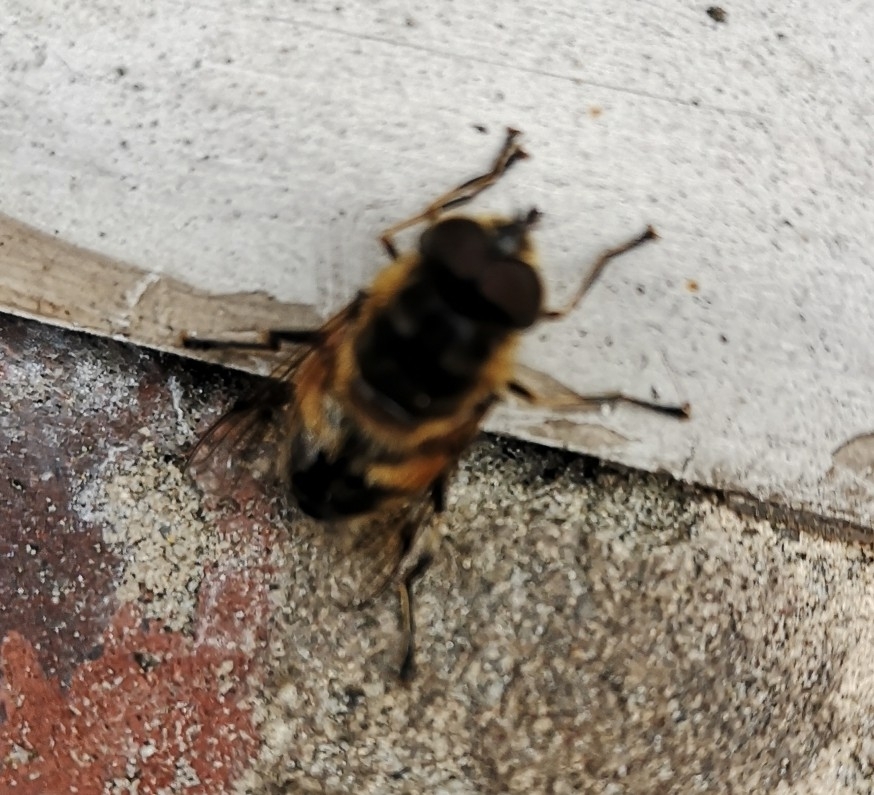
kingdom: Animalia
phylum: Arthropoda
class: Insecta
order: Diptera
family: Syrphidae
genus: Eristalis
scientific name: Eristalis pertinax
